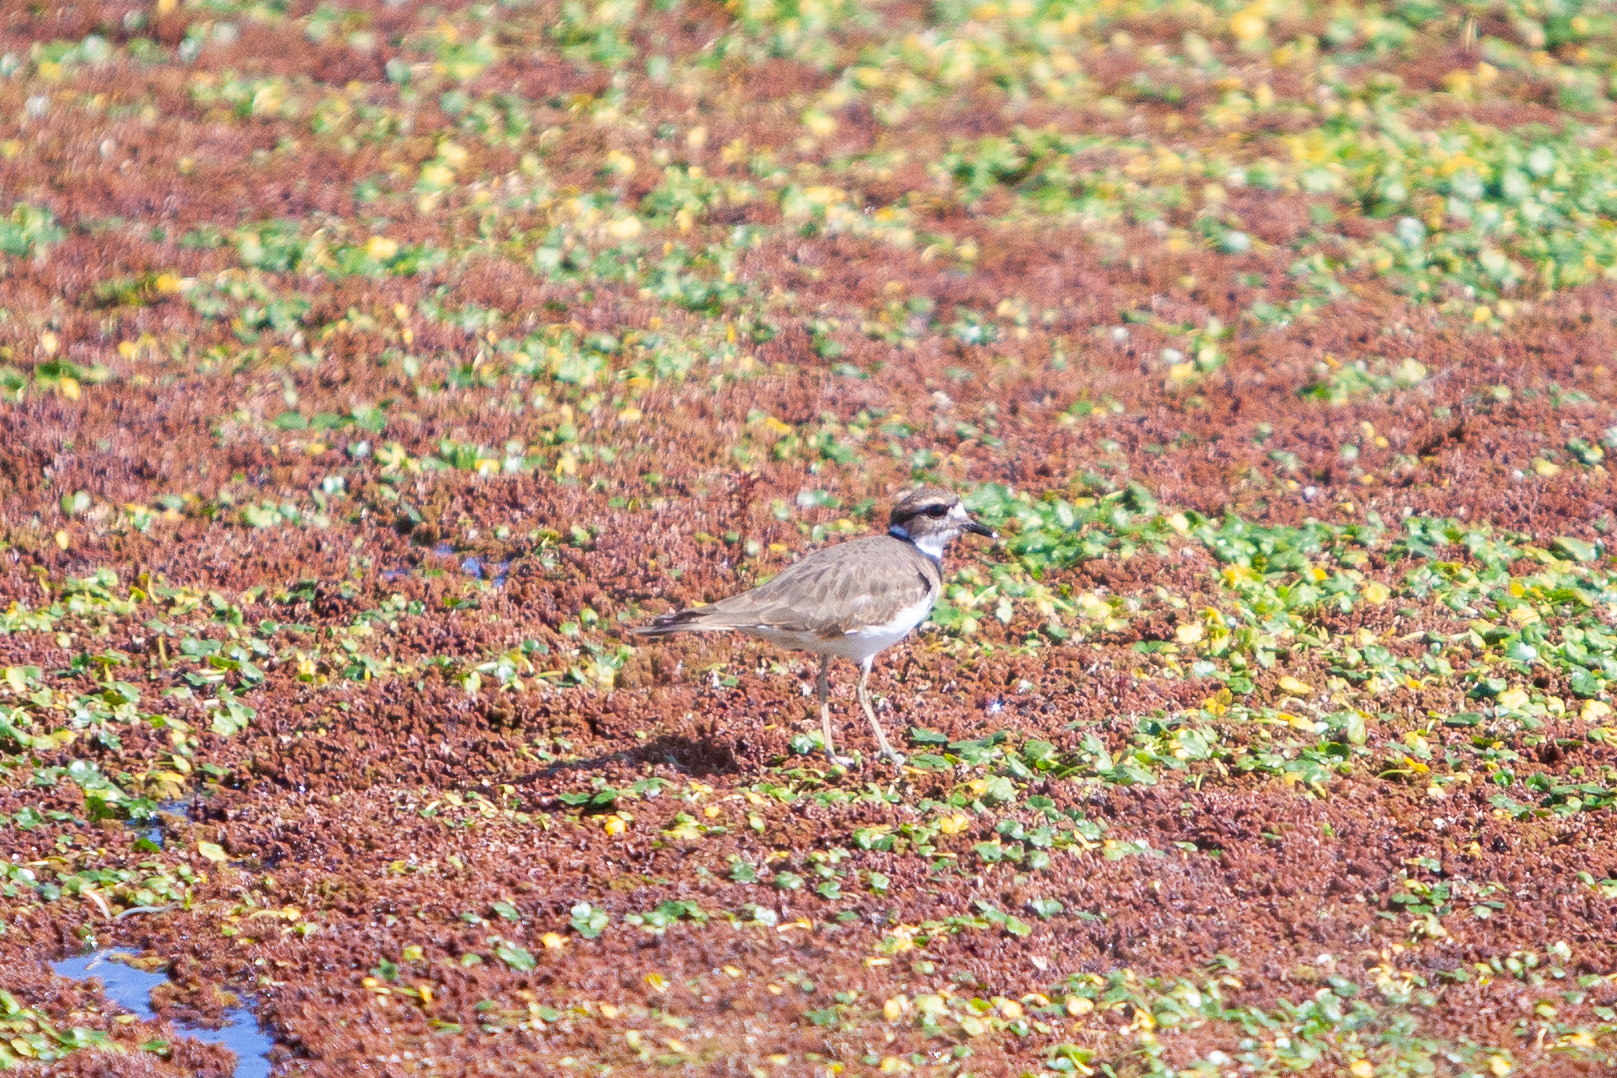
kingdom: Animalia
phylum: Chordata
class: Aves
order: Charadriiformes
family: Charadriidae
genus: Charadrius
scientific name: Charadrius vociferus
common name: Killdeer
